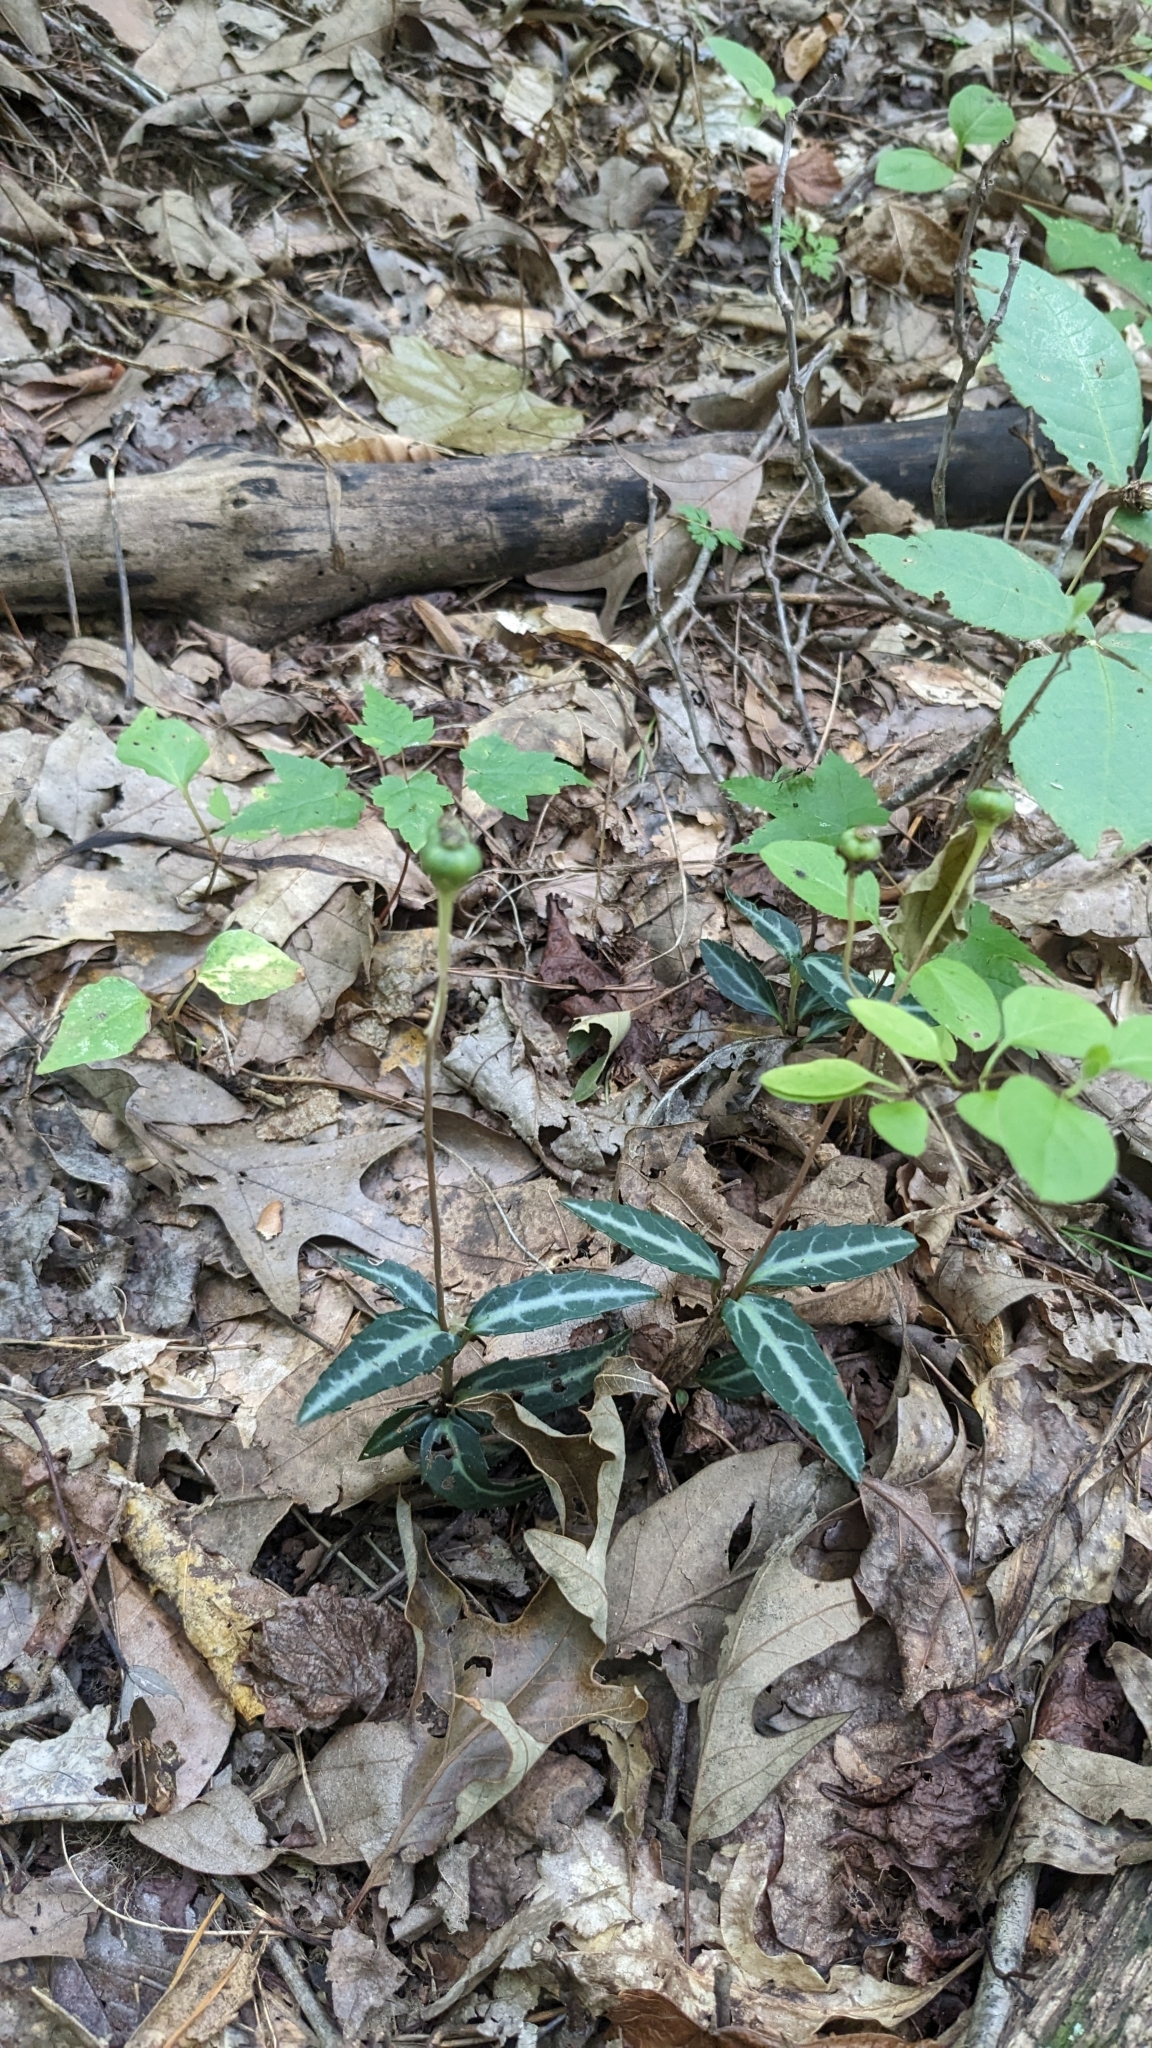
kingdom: Plantae
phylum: Tracheophyta
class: Magnoliopsida
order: Ericales
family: Ericaceae
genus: Chimaphila
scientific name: Chimaphila maculata
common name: Spotted pipsissewa
